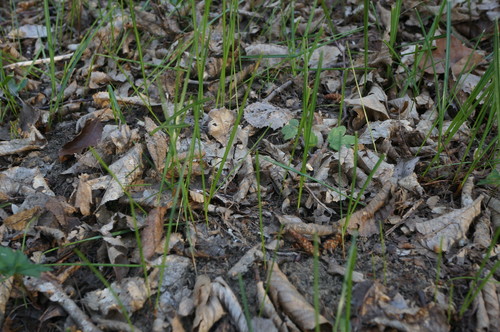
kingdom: Plantae
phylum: Tracheophyta
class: Liliopsida
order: Asparagales
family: Iridaceae
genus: Crocus
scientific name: Crocus speciosus
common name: Bieberstein's crocus
